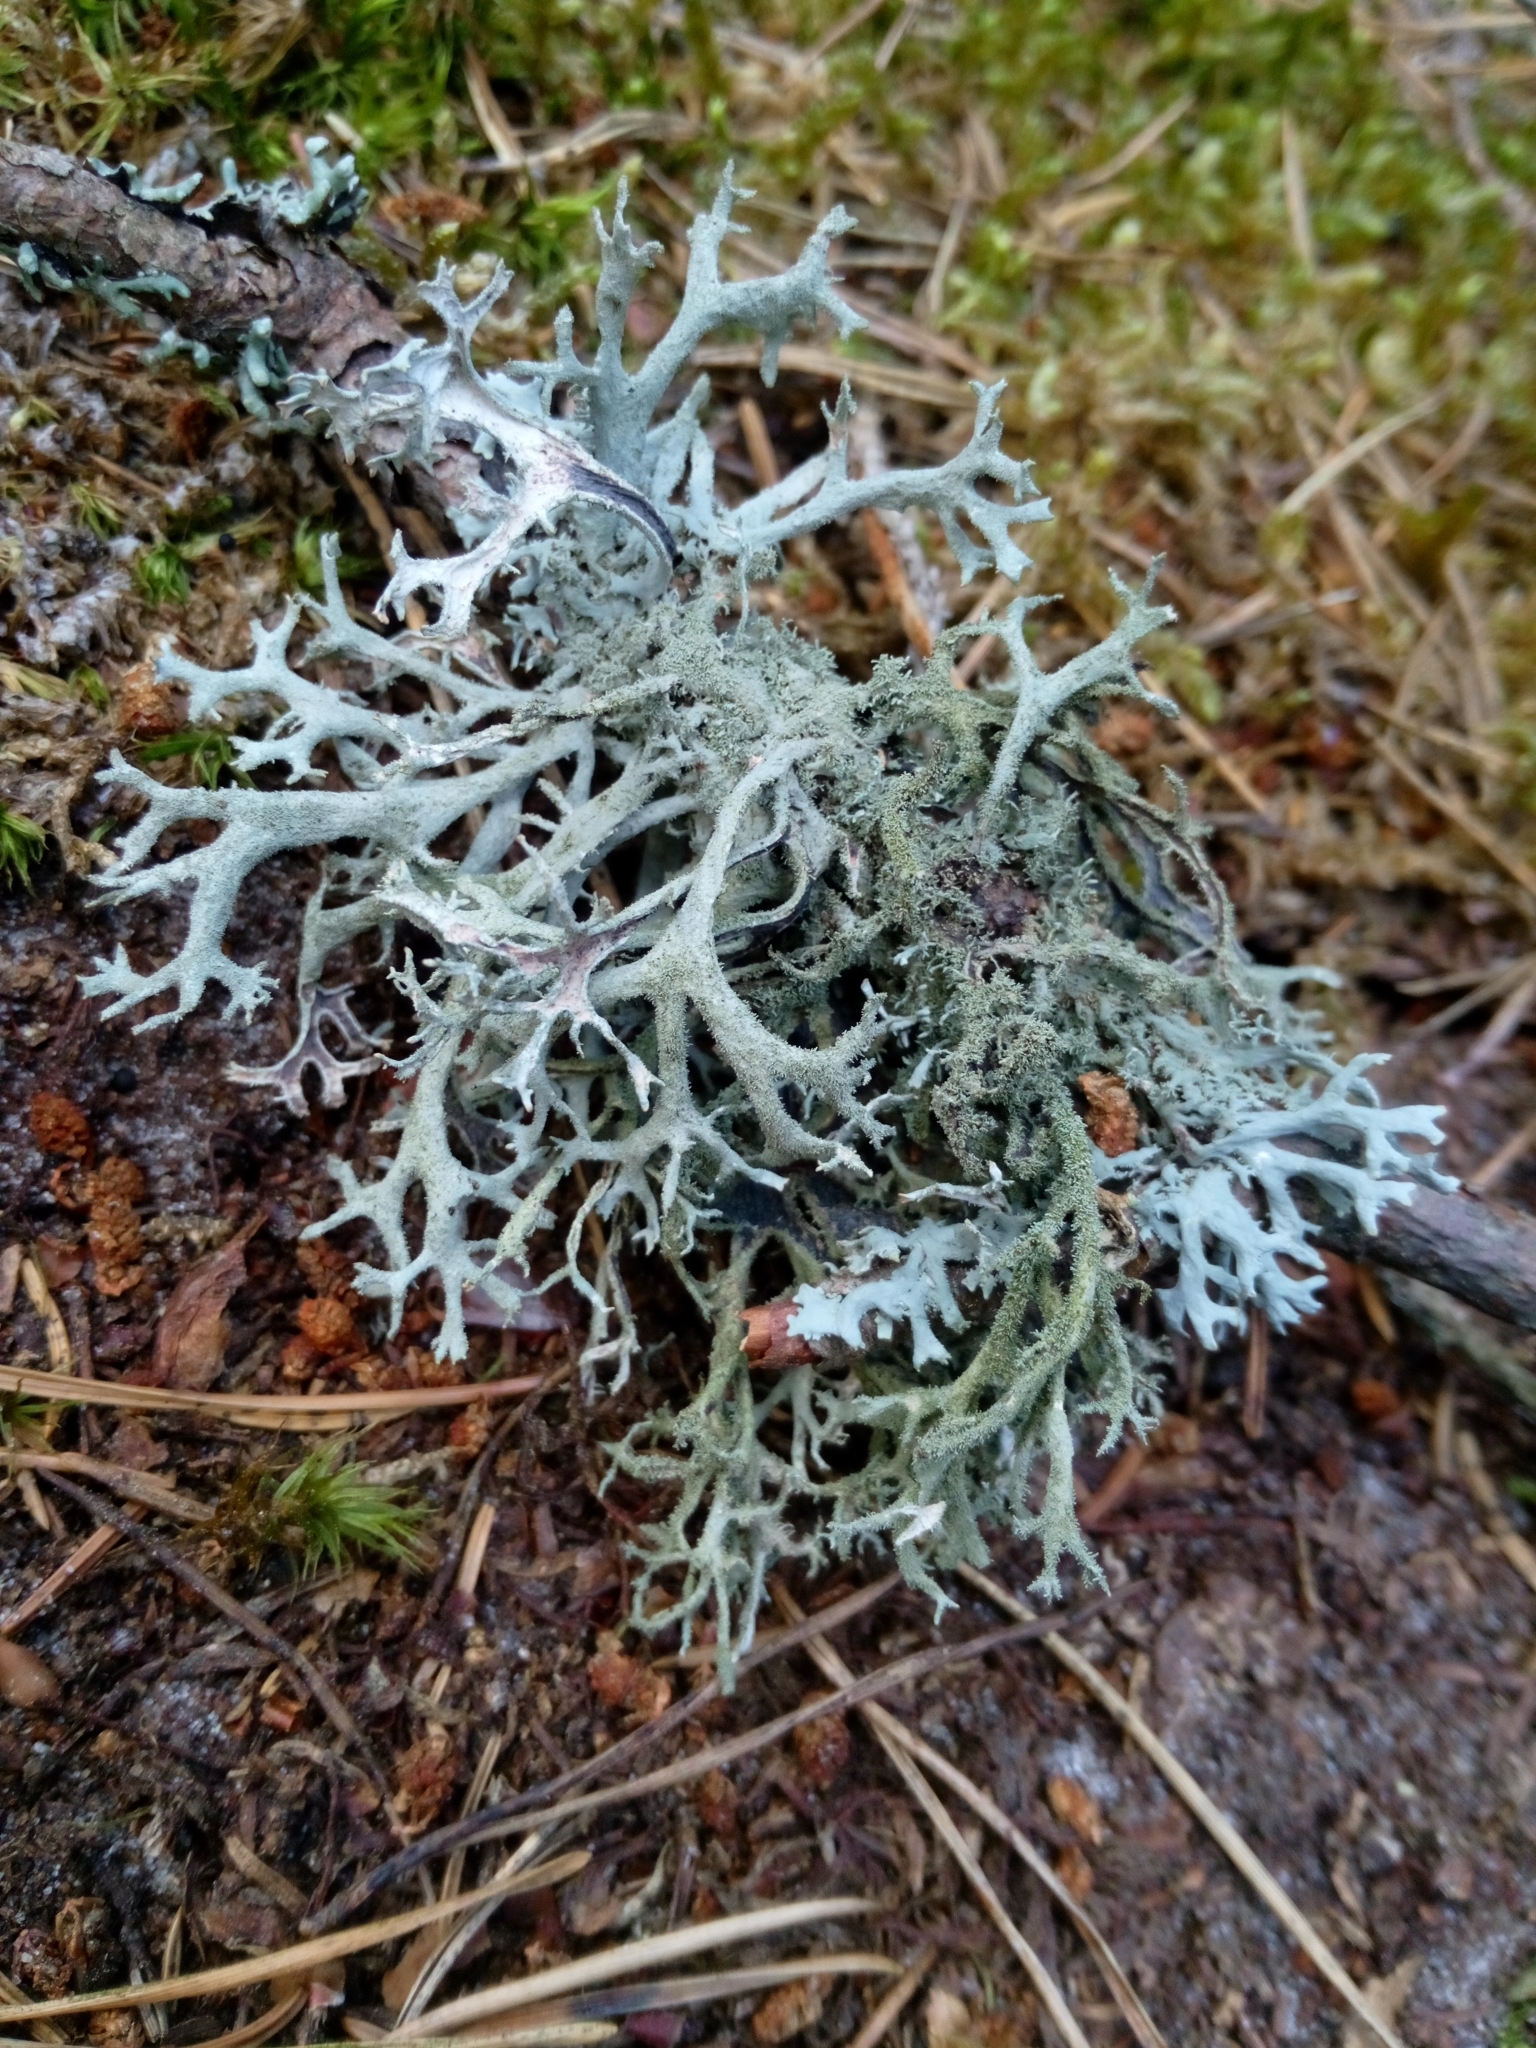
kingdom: Fungi
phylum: Ascomycota
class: Lecanoromycetes
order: Lecanorales
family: Parmeliaceae
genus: Pseudevernia
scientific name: Pseudevernia furfuracea
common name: Tree moss
